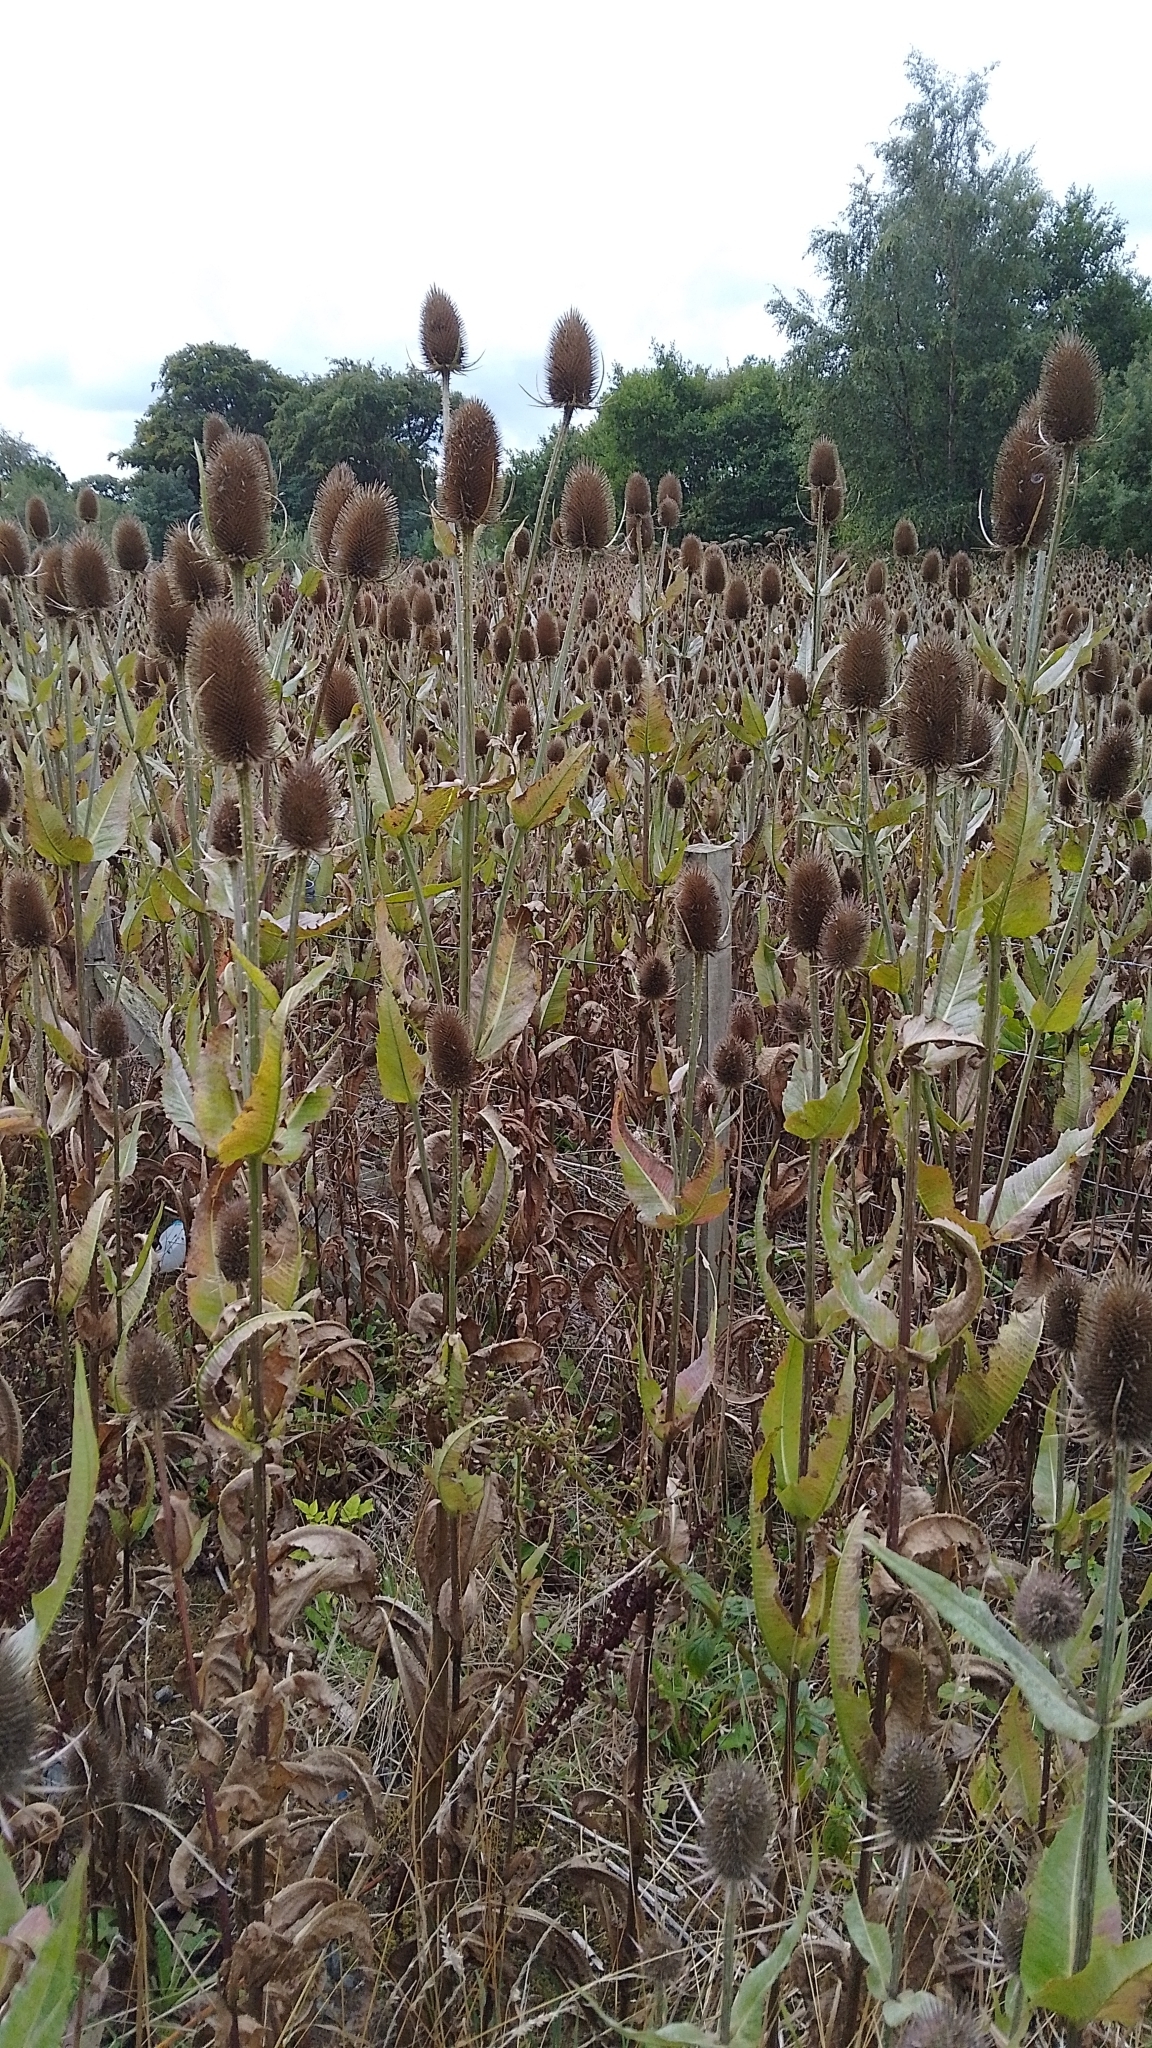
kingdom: Plantae
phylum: Tracheophyta
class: Magnoliopsida
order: Dipsacales
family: Caprifoliaceae
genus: Dipsacus
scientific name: Dipsacus fullonum
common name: Teasel
